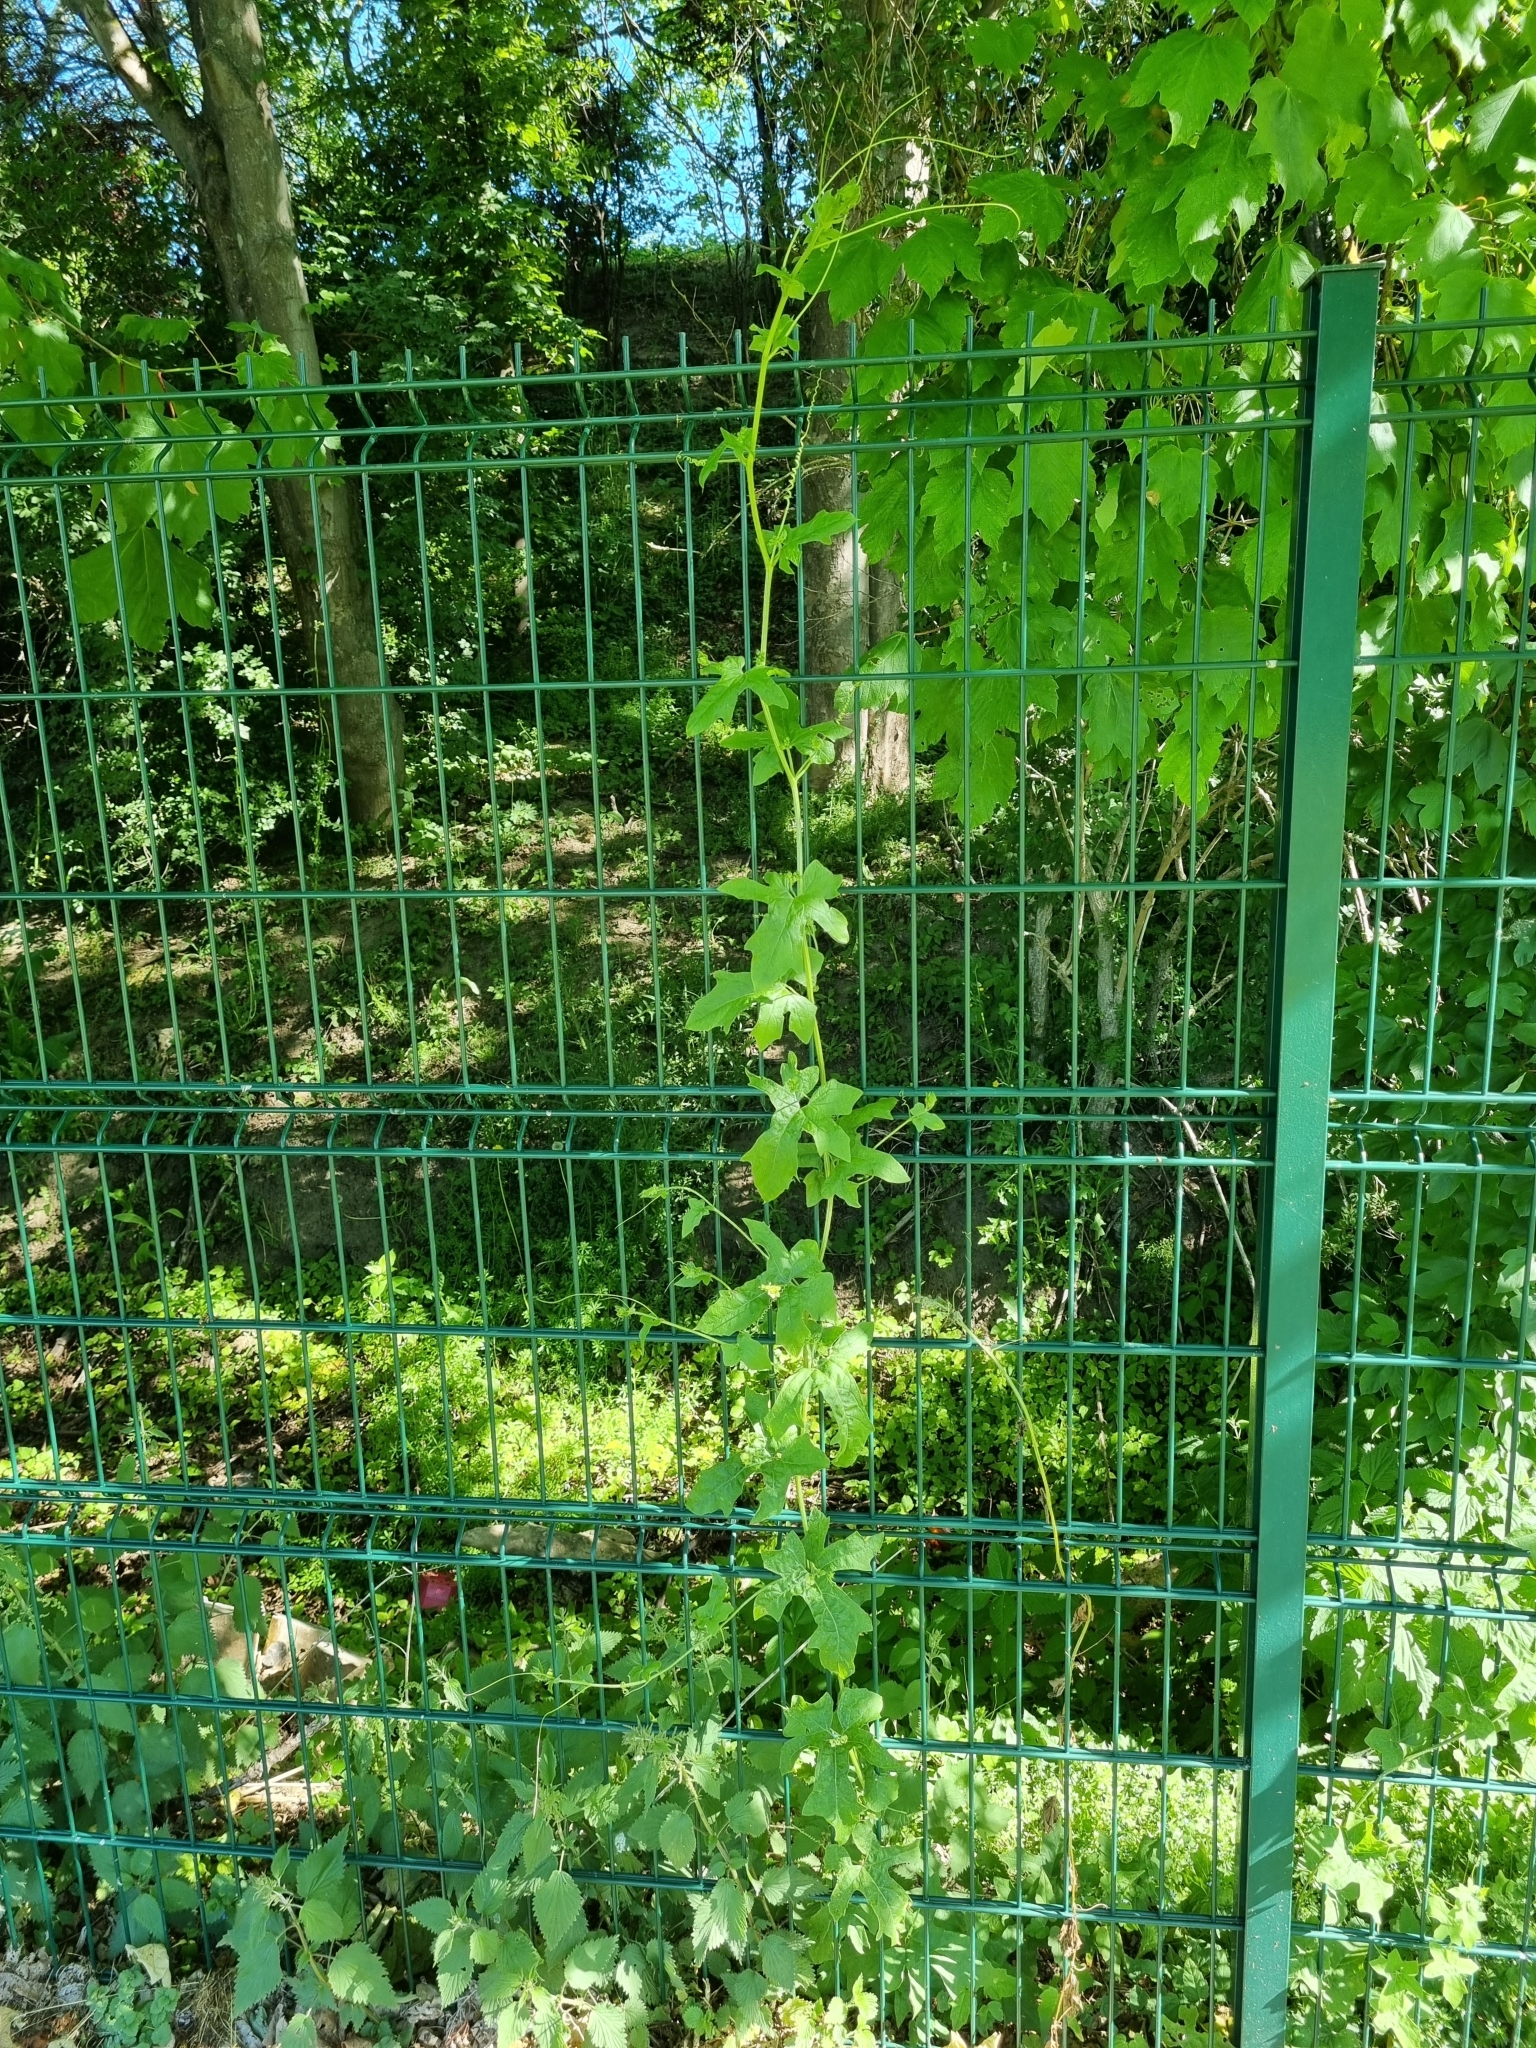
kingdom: Plantae
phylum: Tracheophyta
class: Magnoliopsida
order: Cucurbitales
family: Cucurbitaceae
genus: Bryonia
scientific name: Bryonia dioica
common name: White bryony
